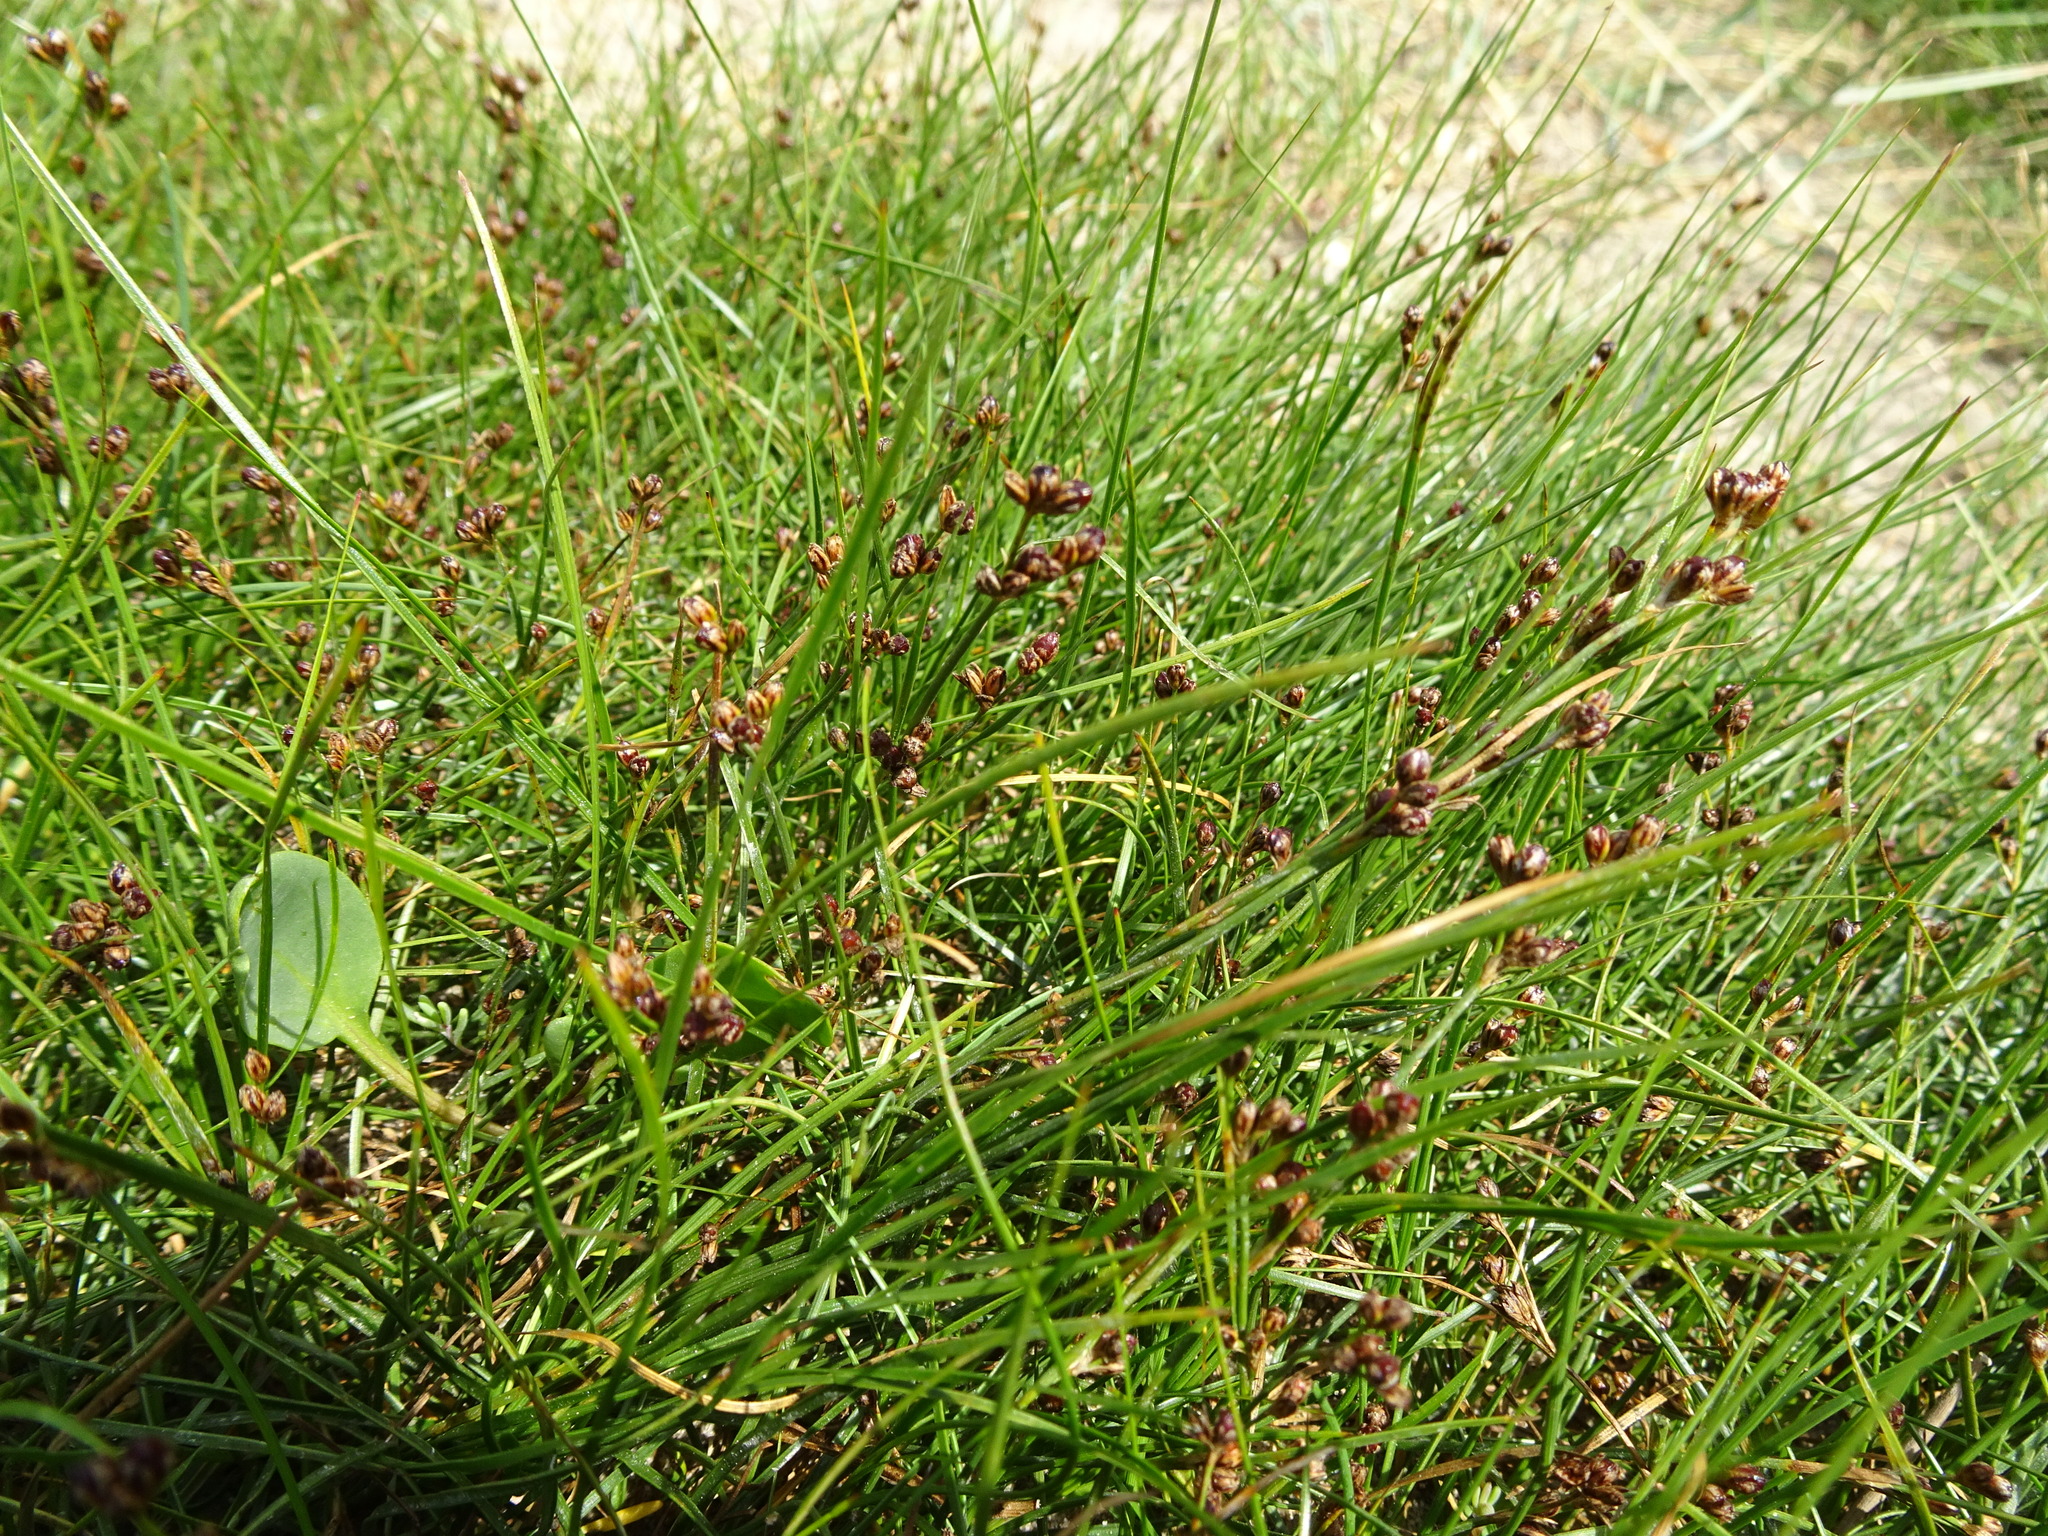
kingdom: Plantae
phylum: Tracheophyta
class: Liliopsida
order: Poales
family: Juncaceae
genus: Juncus
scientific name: Juncus gerardi
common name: Saltmarsh rush
